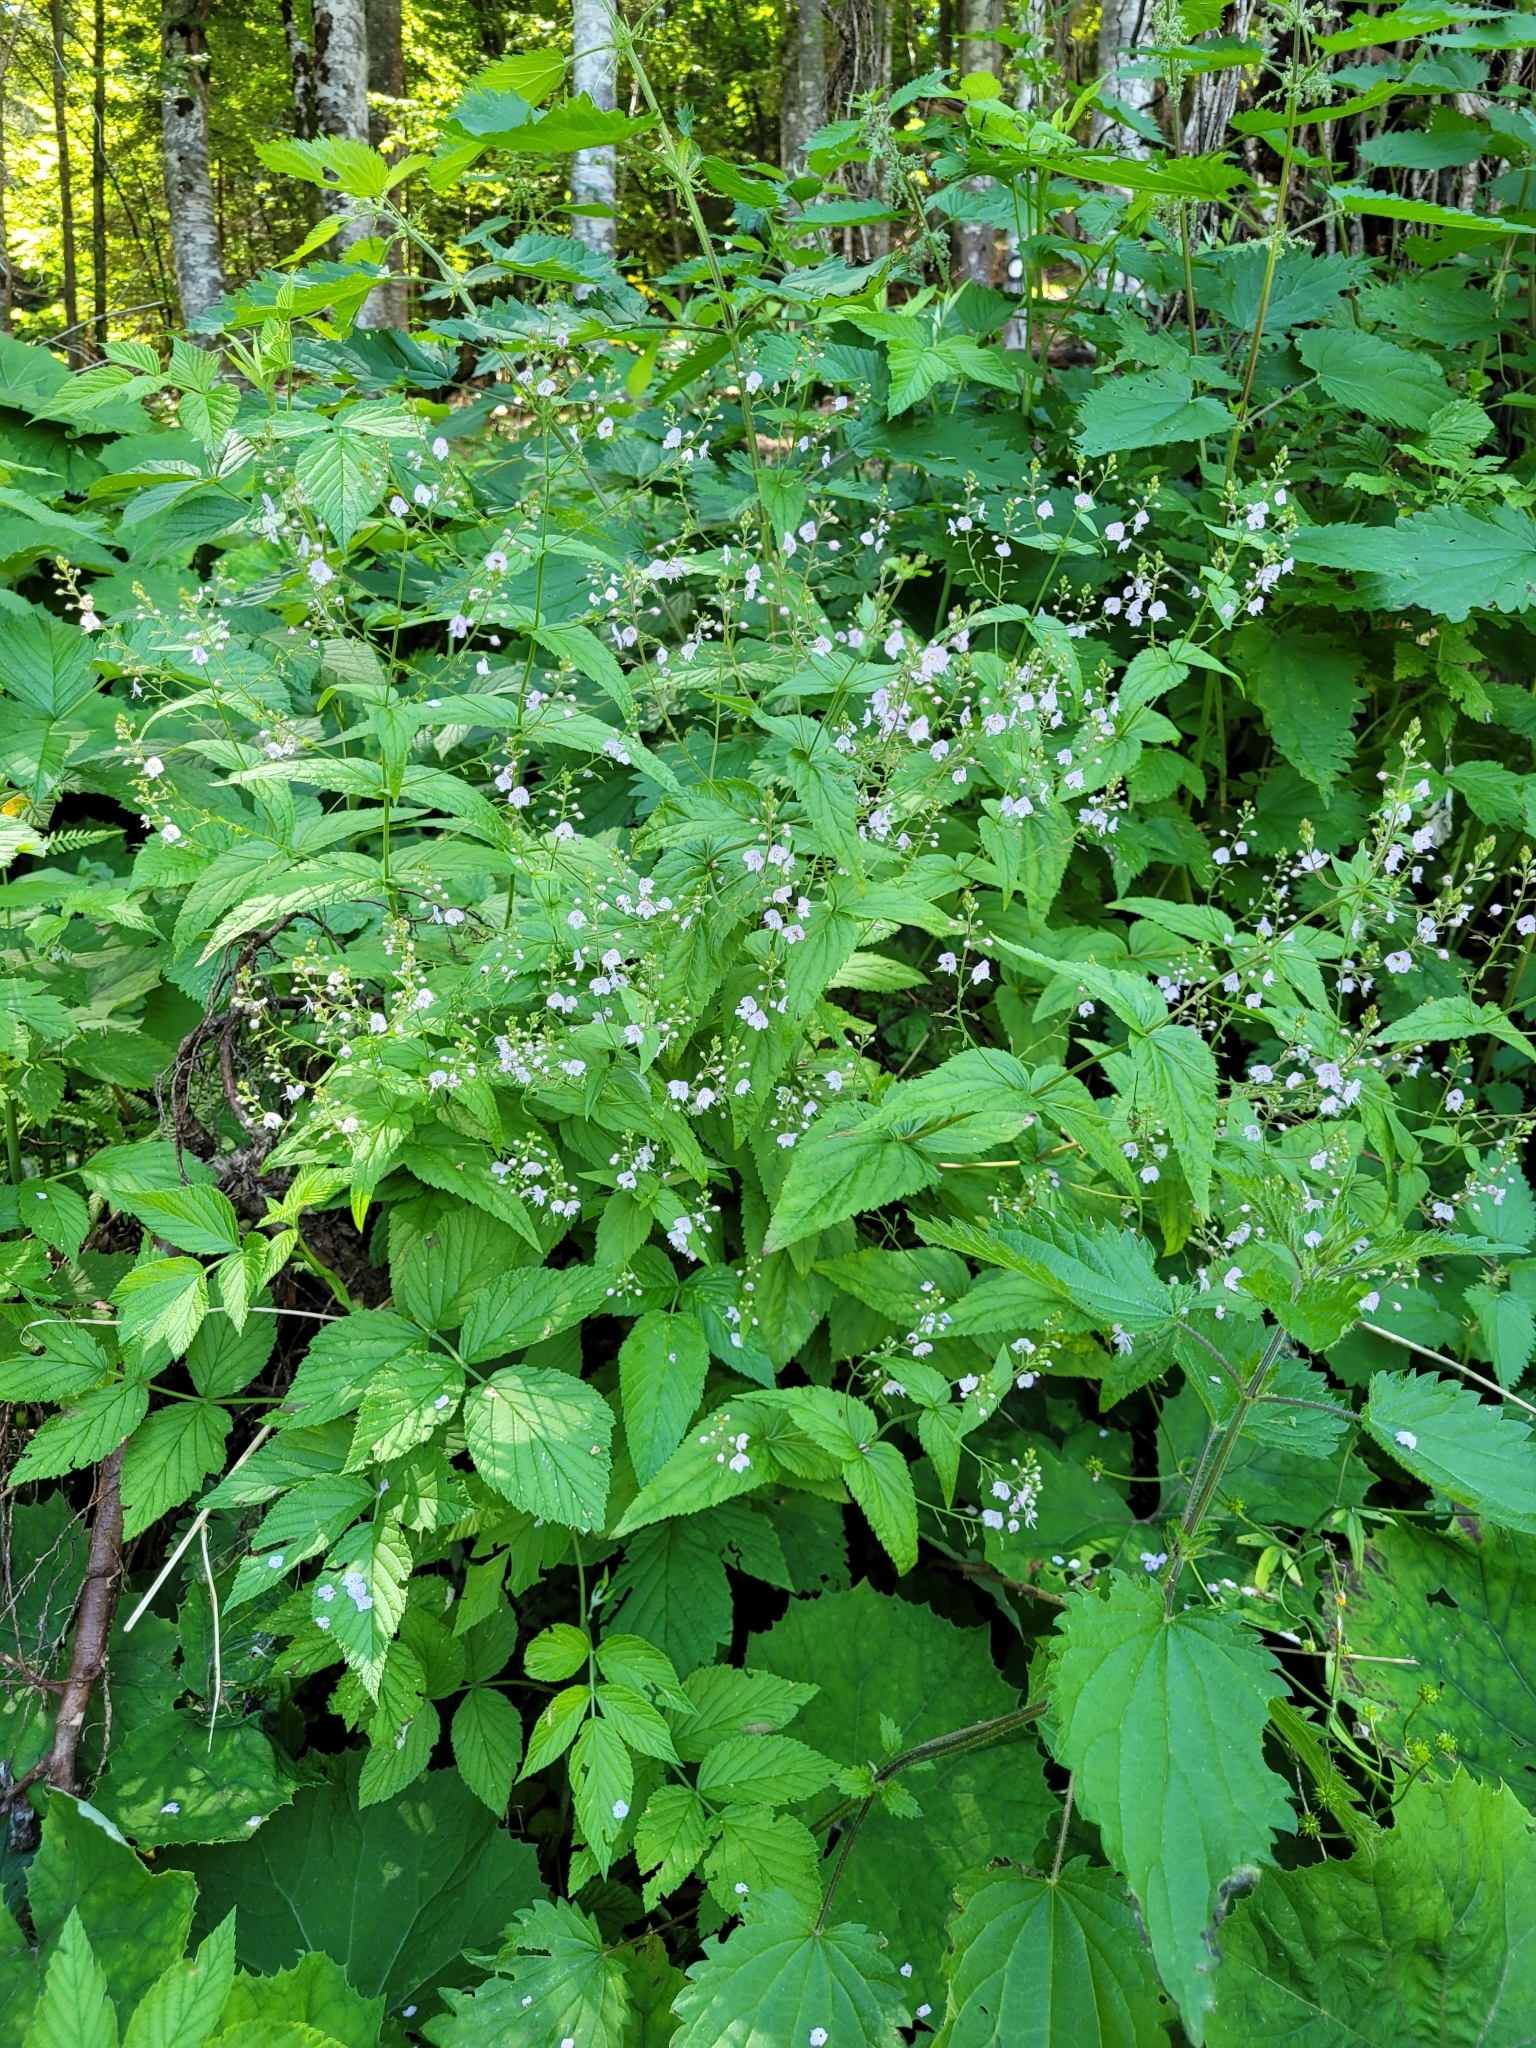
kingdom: Plantae
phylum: Tracheophyta
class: Magnoliopsida
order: Lamiales
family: Plantaginaceae
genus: Veronica
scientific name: Veronica urticifolia
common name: Nettle-leaf speedwell
